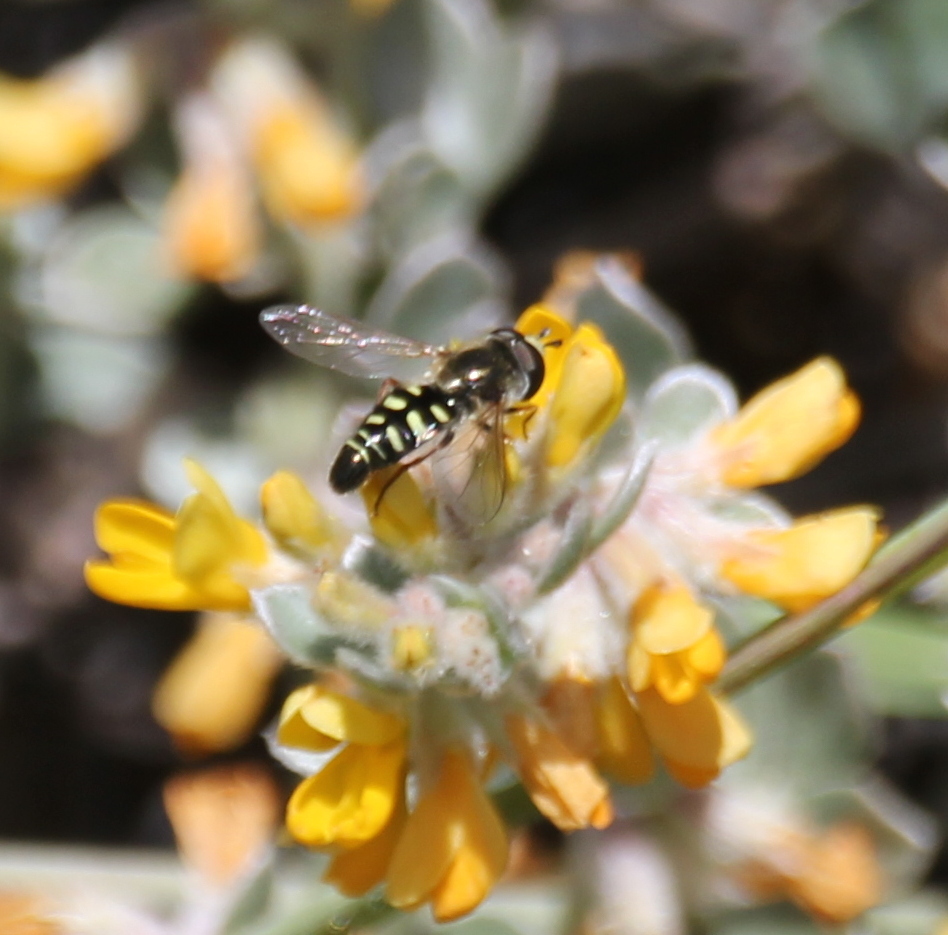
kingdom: Animalia
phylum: Arthropoda
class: Insecta
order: Diptera
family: Syrphidae
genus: Eupeodes
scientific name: Eupeodes volucris
